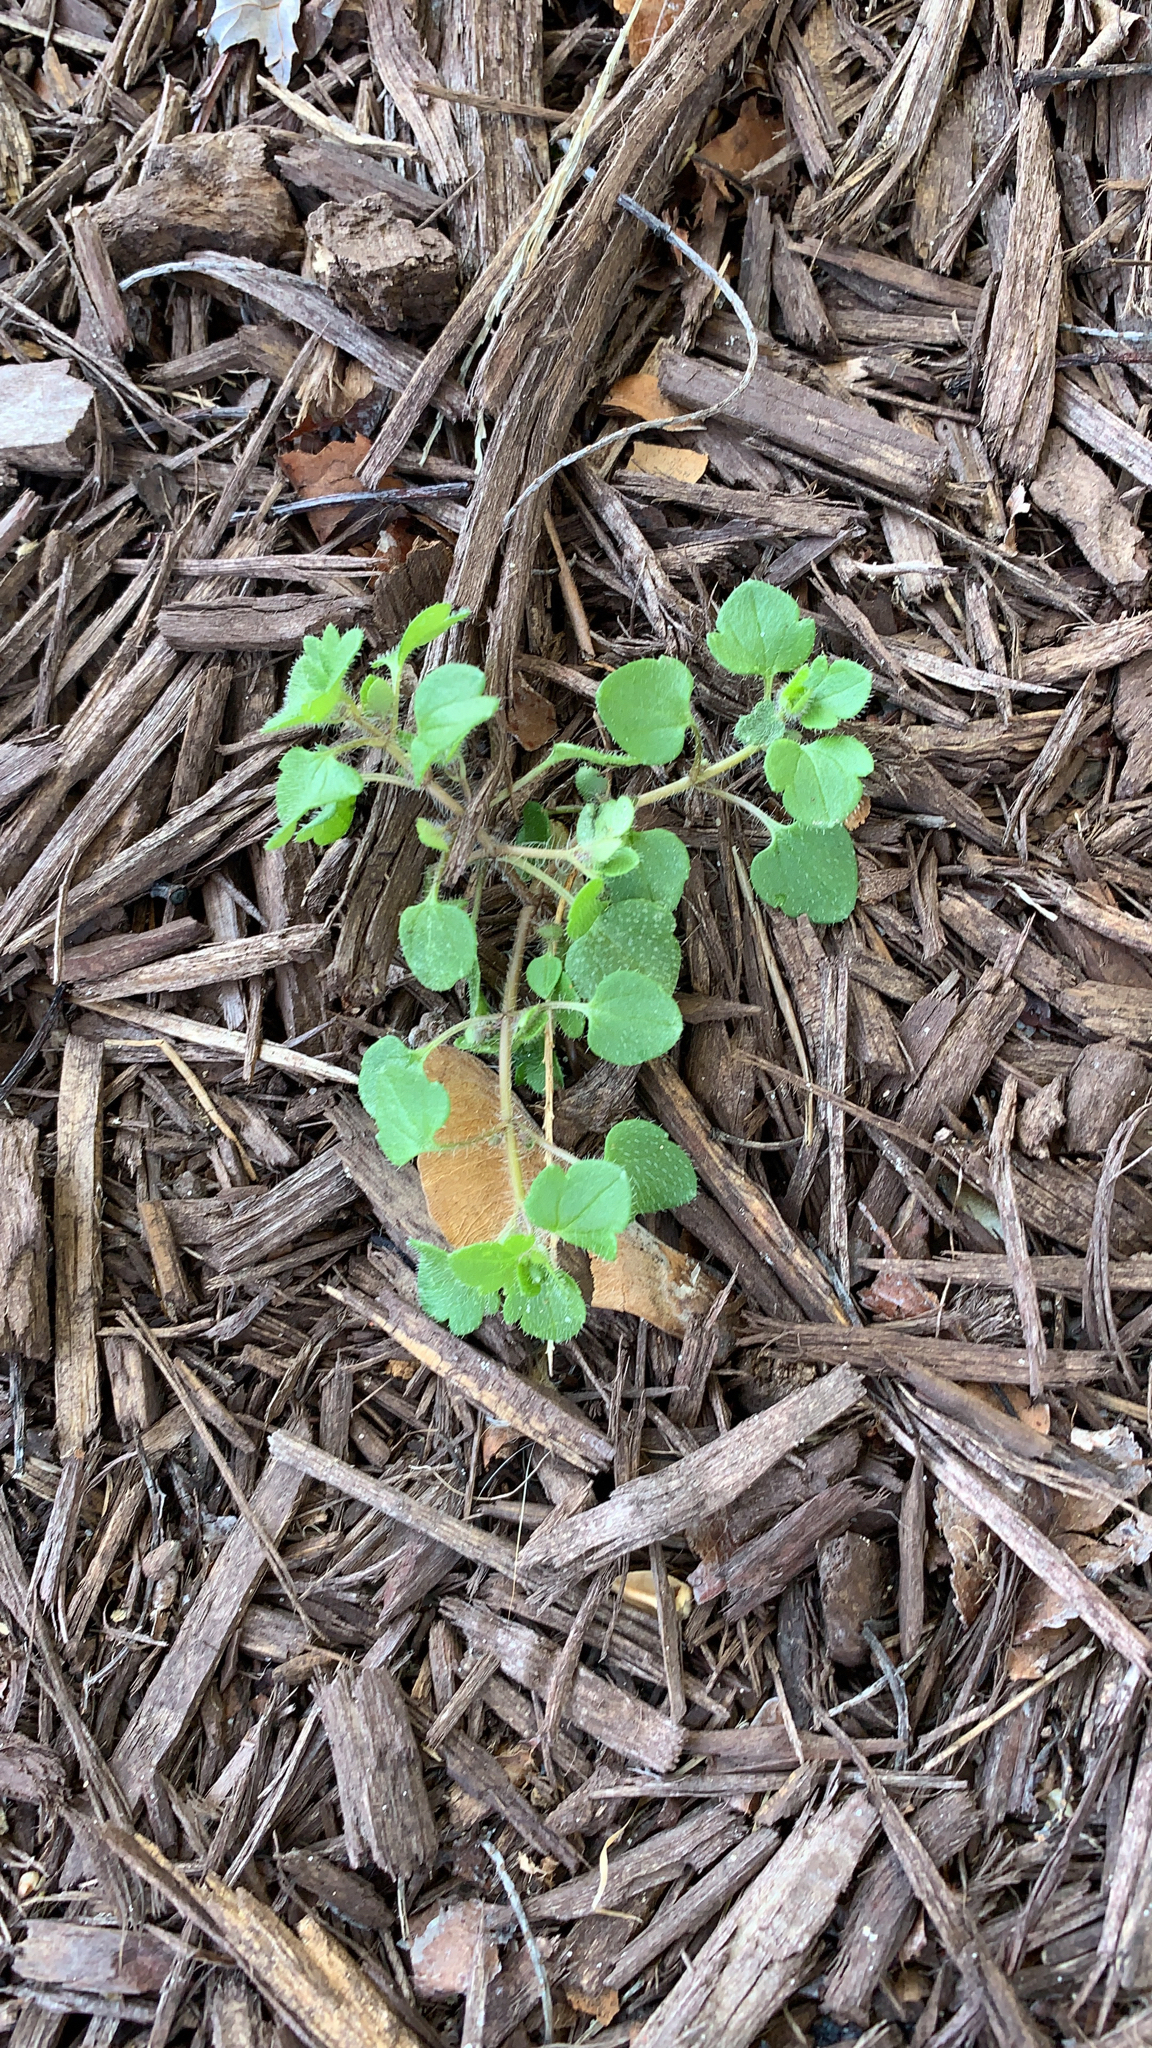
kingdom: Plantae
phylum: Tracheophyta
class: Magnoliopsida
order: Lamiales
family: Plantaginaceae
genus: Veronica
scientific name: Veronica hederifolia
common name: Ivy-leaved speedwell
